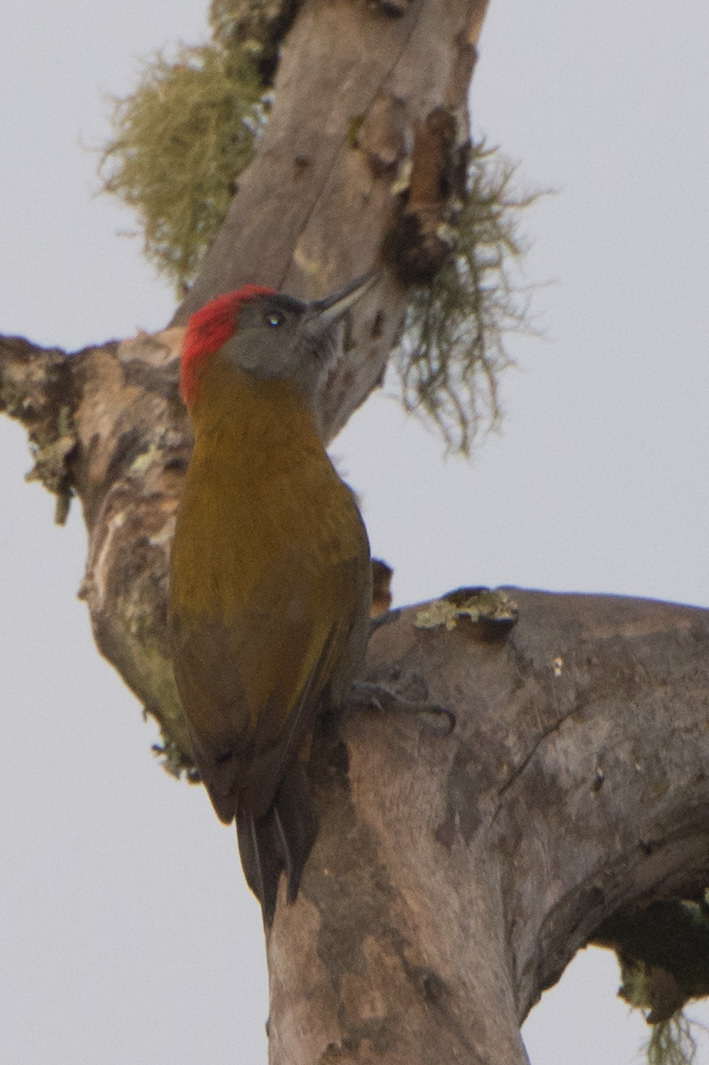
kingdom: Animalia
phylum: Chordata
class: Aves
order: Piciformes
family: Picidae
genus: Dendropicos
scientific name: Dendropicos griseocephalus
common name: Olive woodpecker
